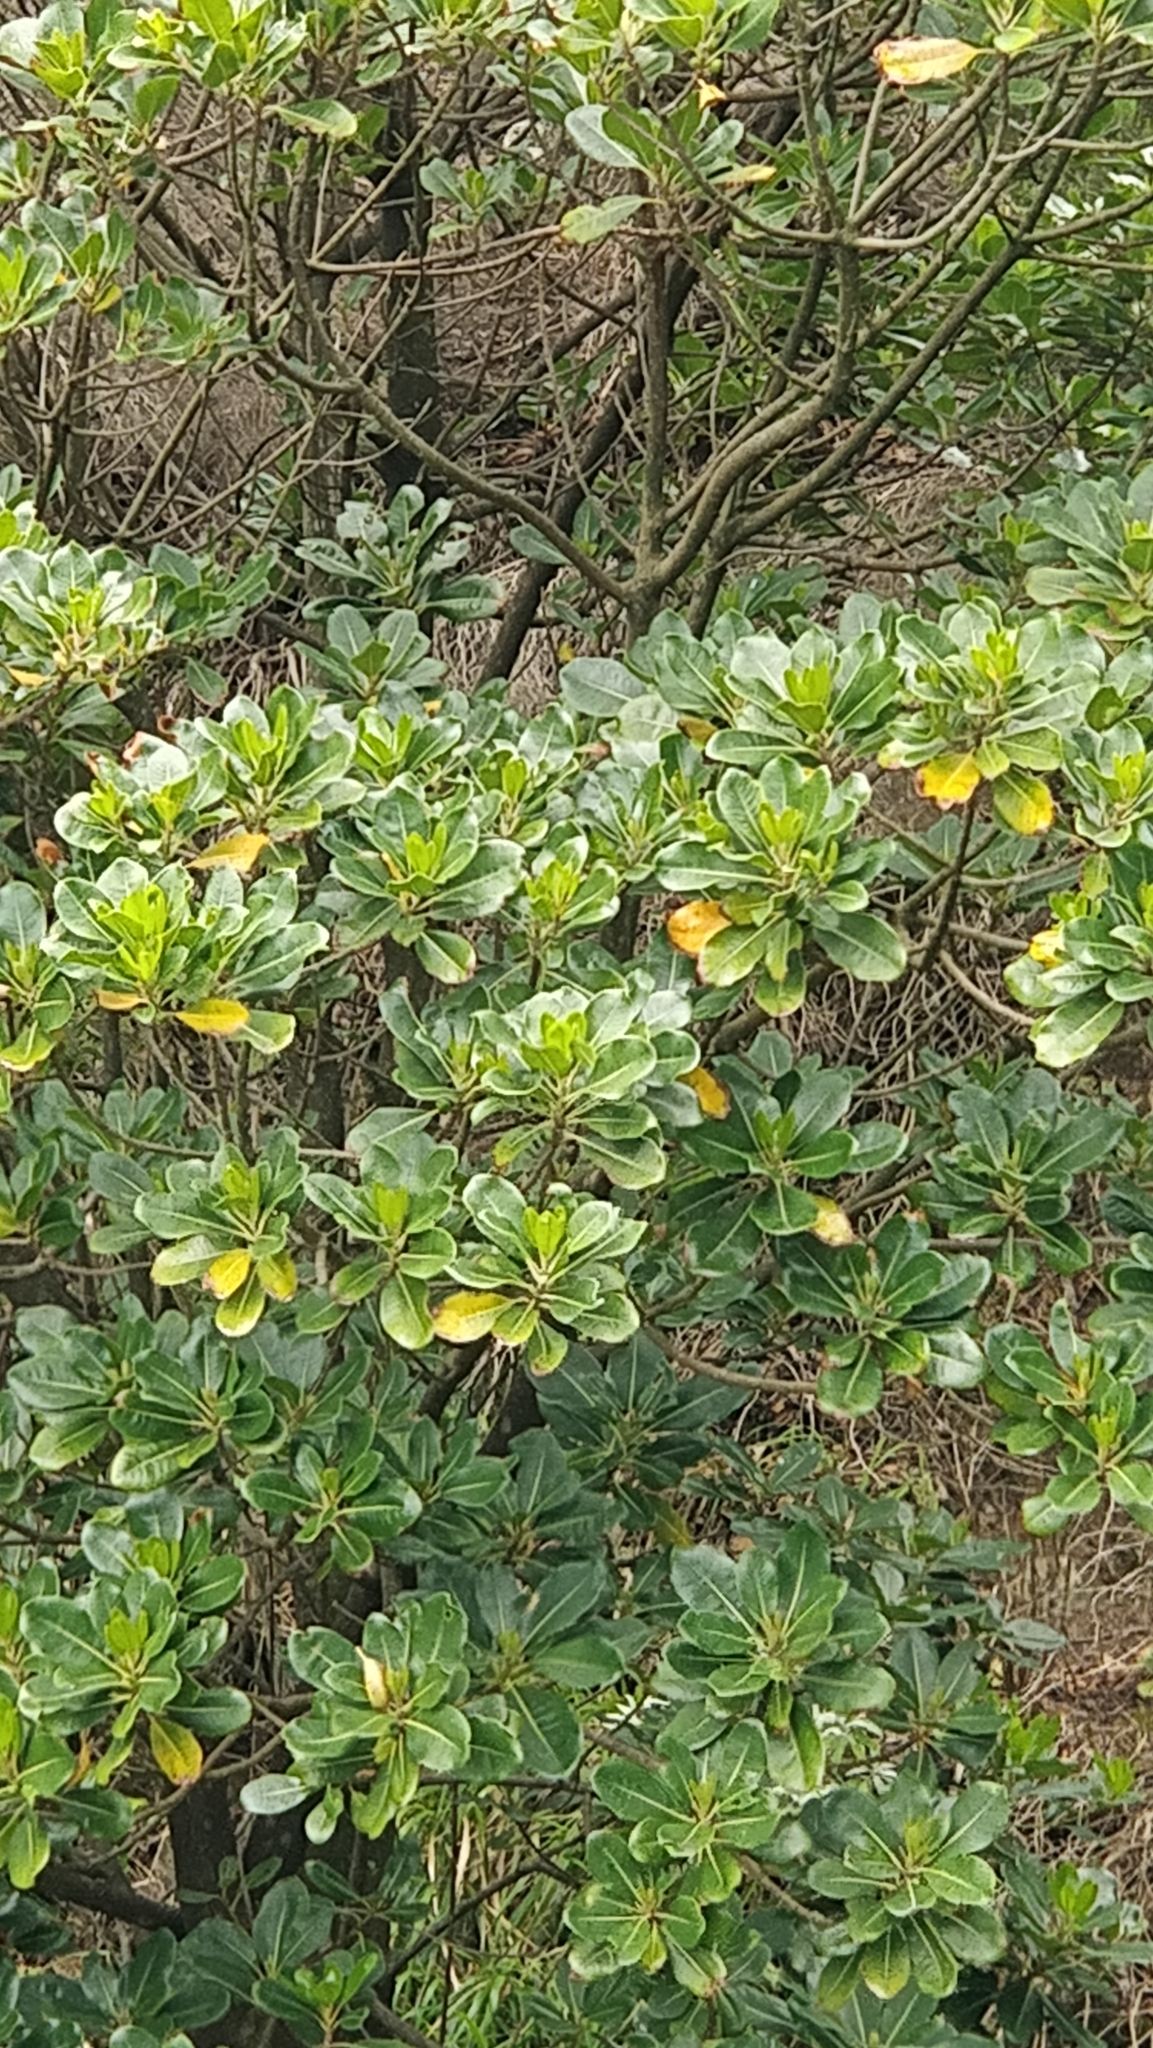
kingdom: Plantae
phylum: Tracheophyta
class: Magnoliopsida
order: Ericales
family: Sapotaceae
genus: Sideroxylon
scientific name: Sideroxylon mirmulans
